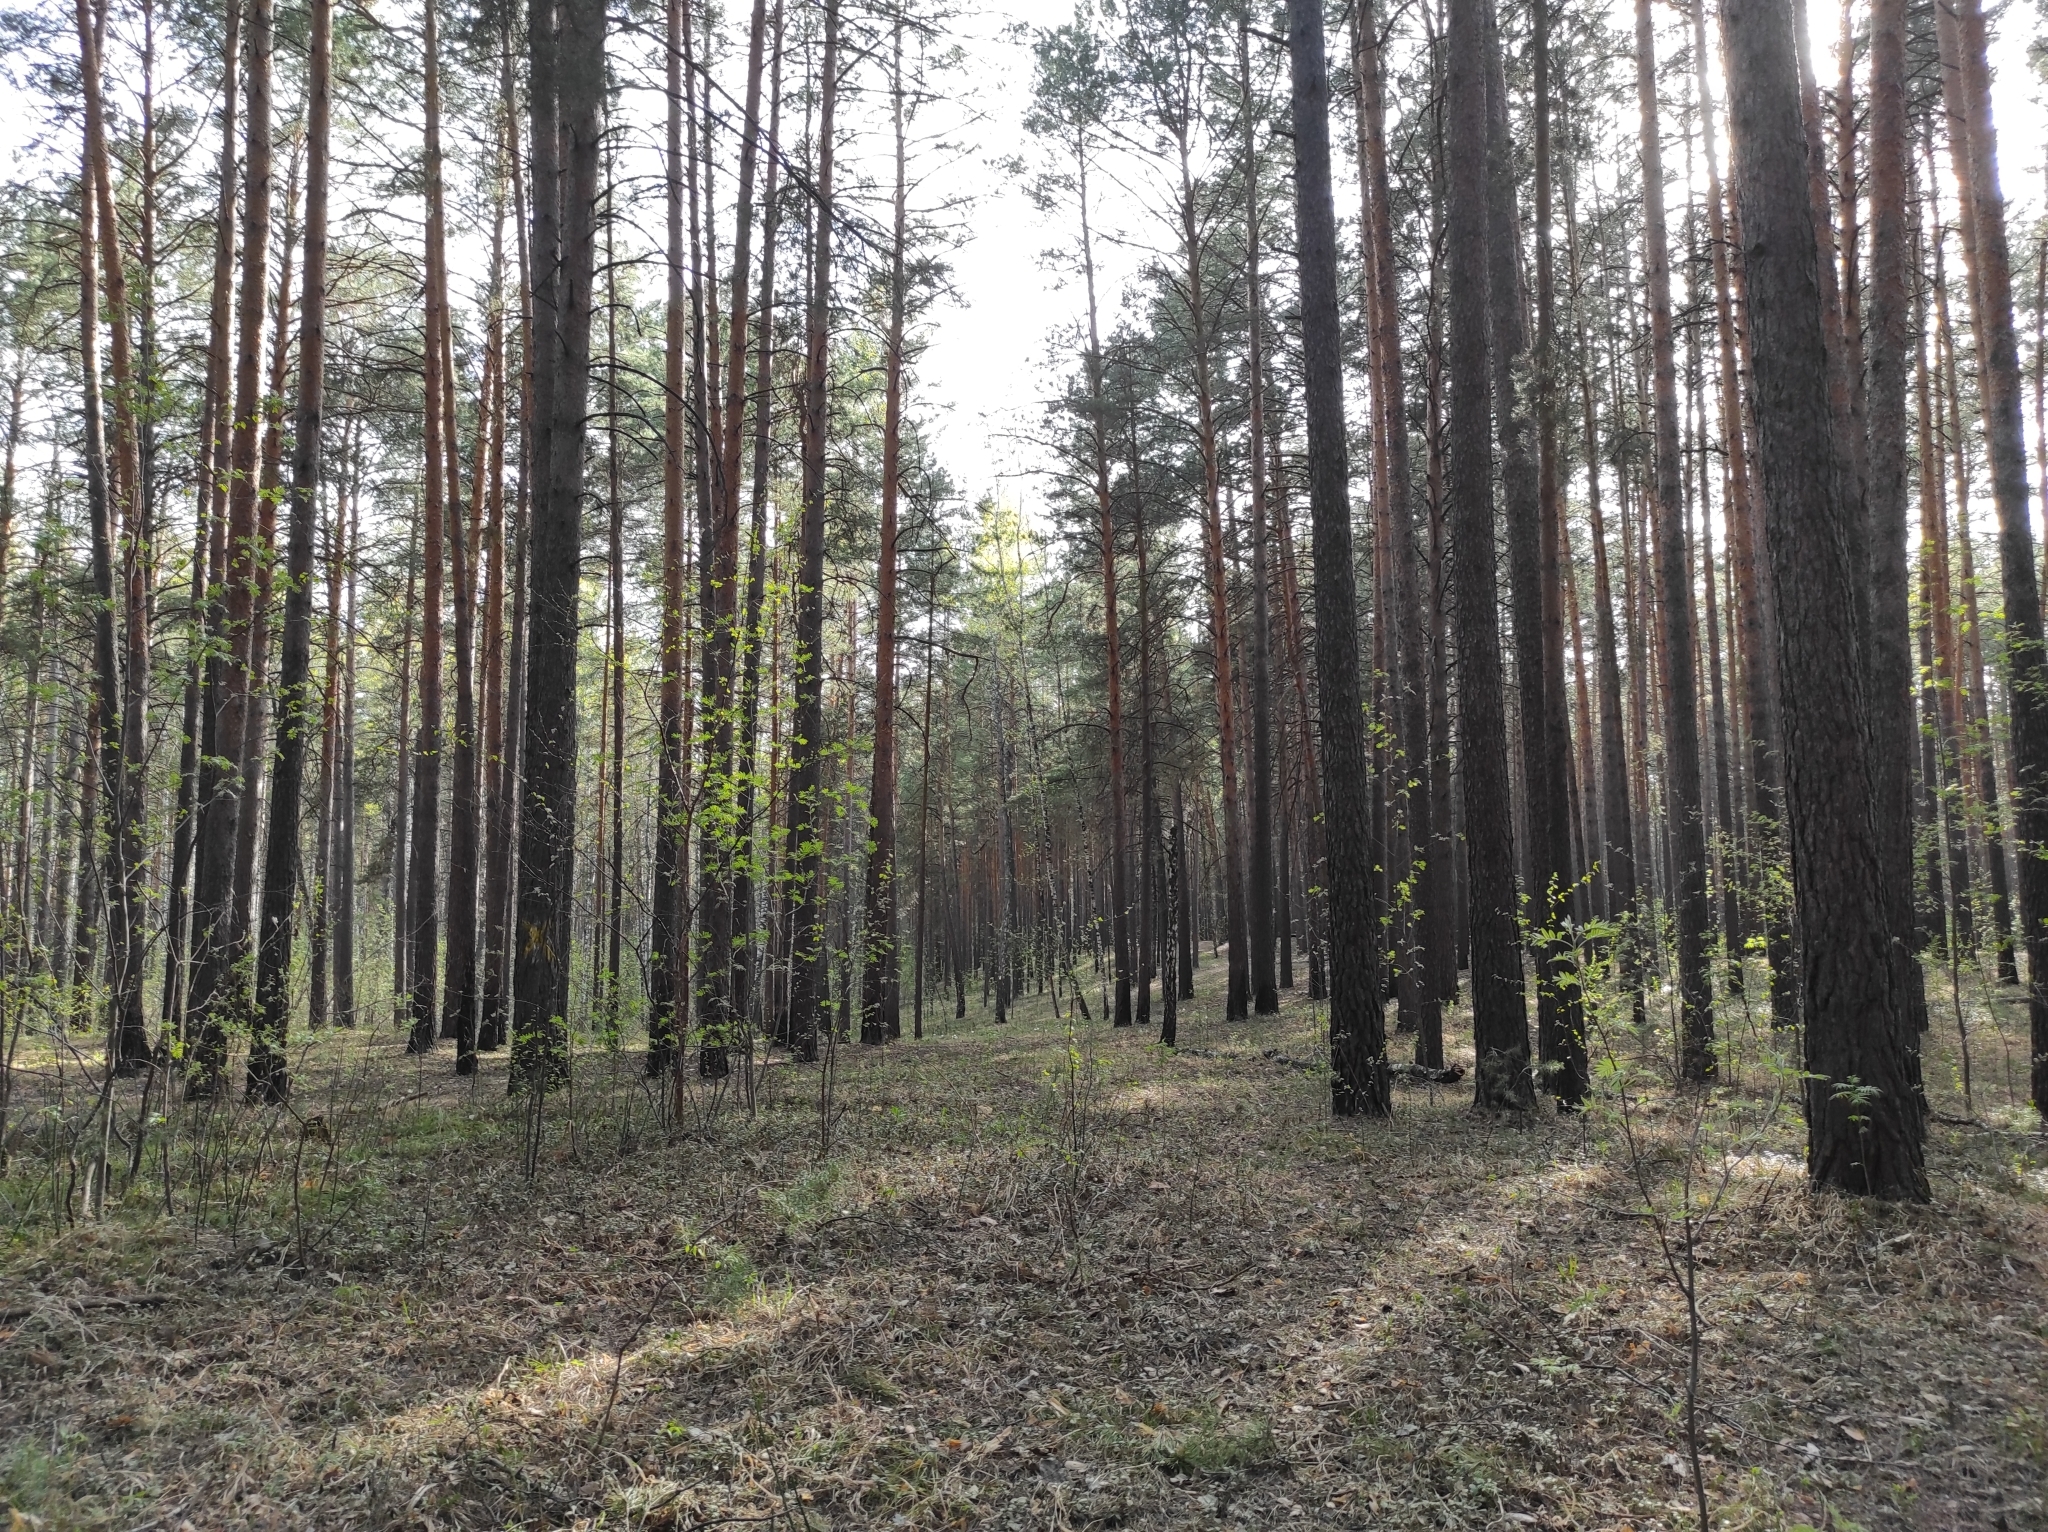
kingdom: Plantae
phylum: Tracheophyta
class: Magnoliopsida
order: Ranunculales
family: Ranunculaceae
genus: Pulsatilla
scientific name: Pulsatilla patens
